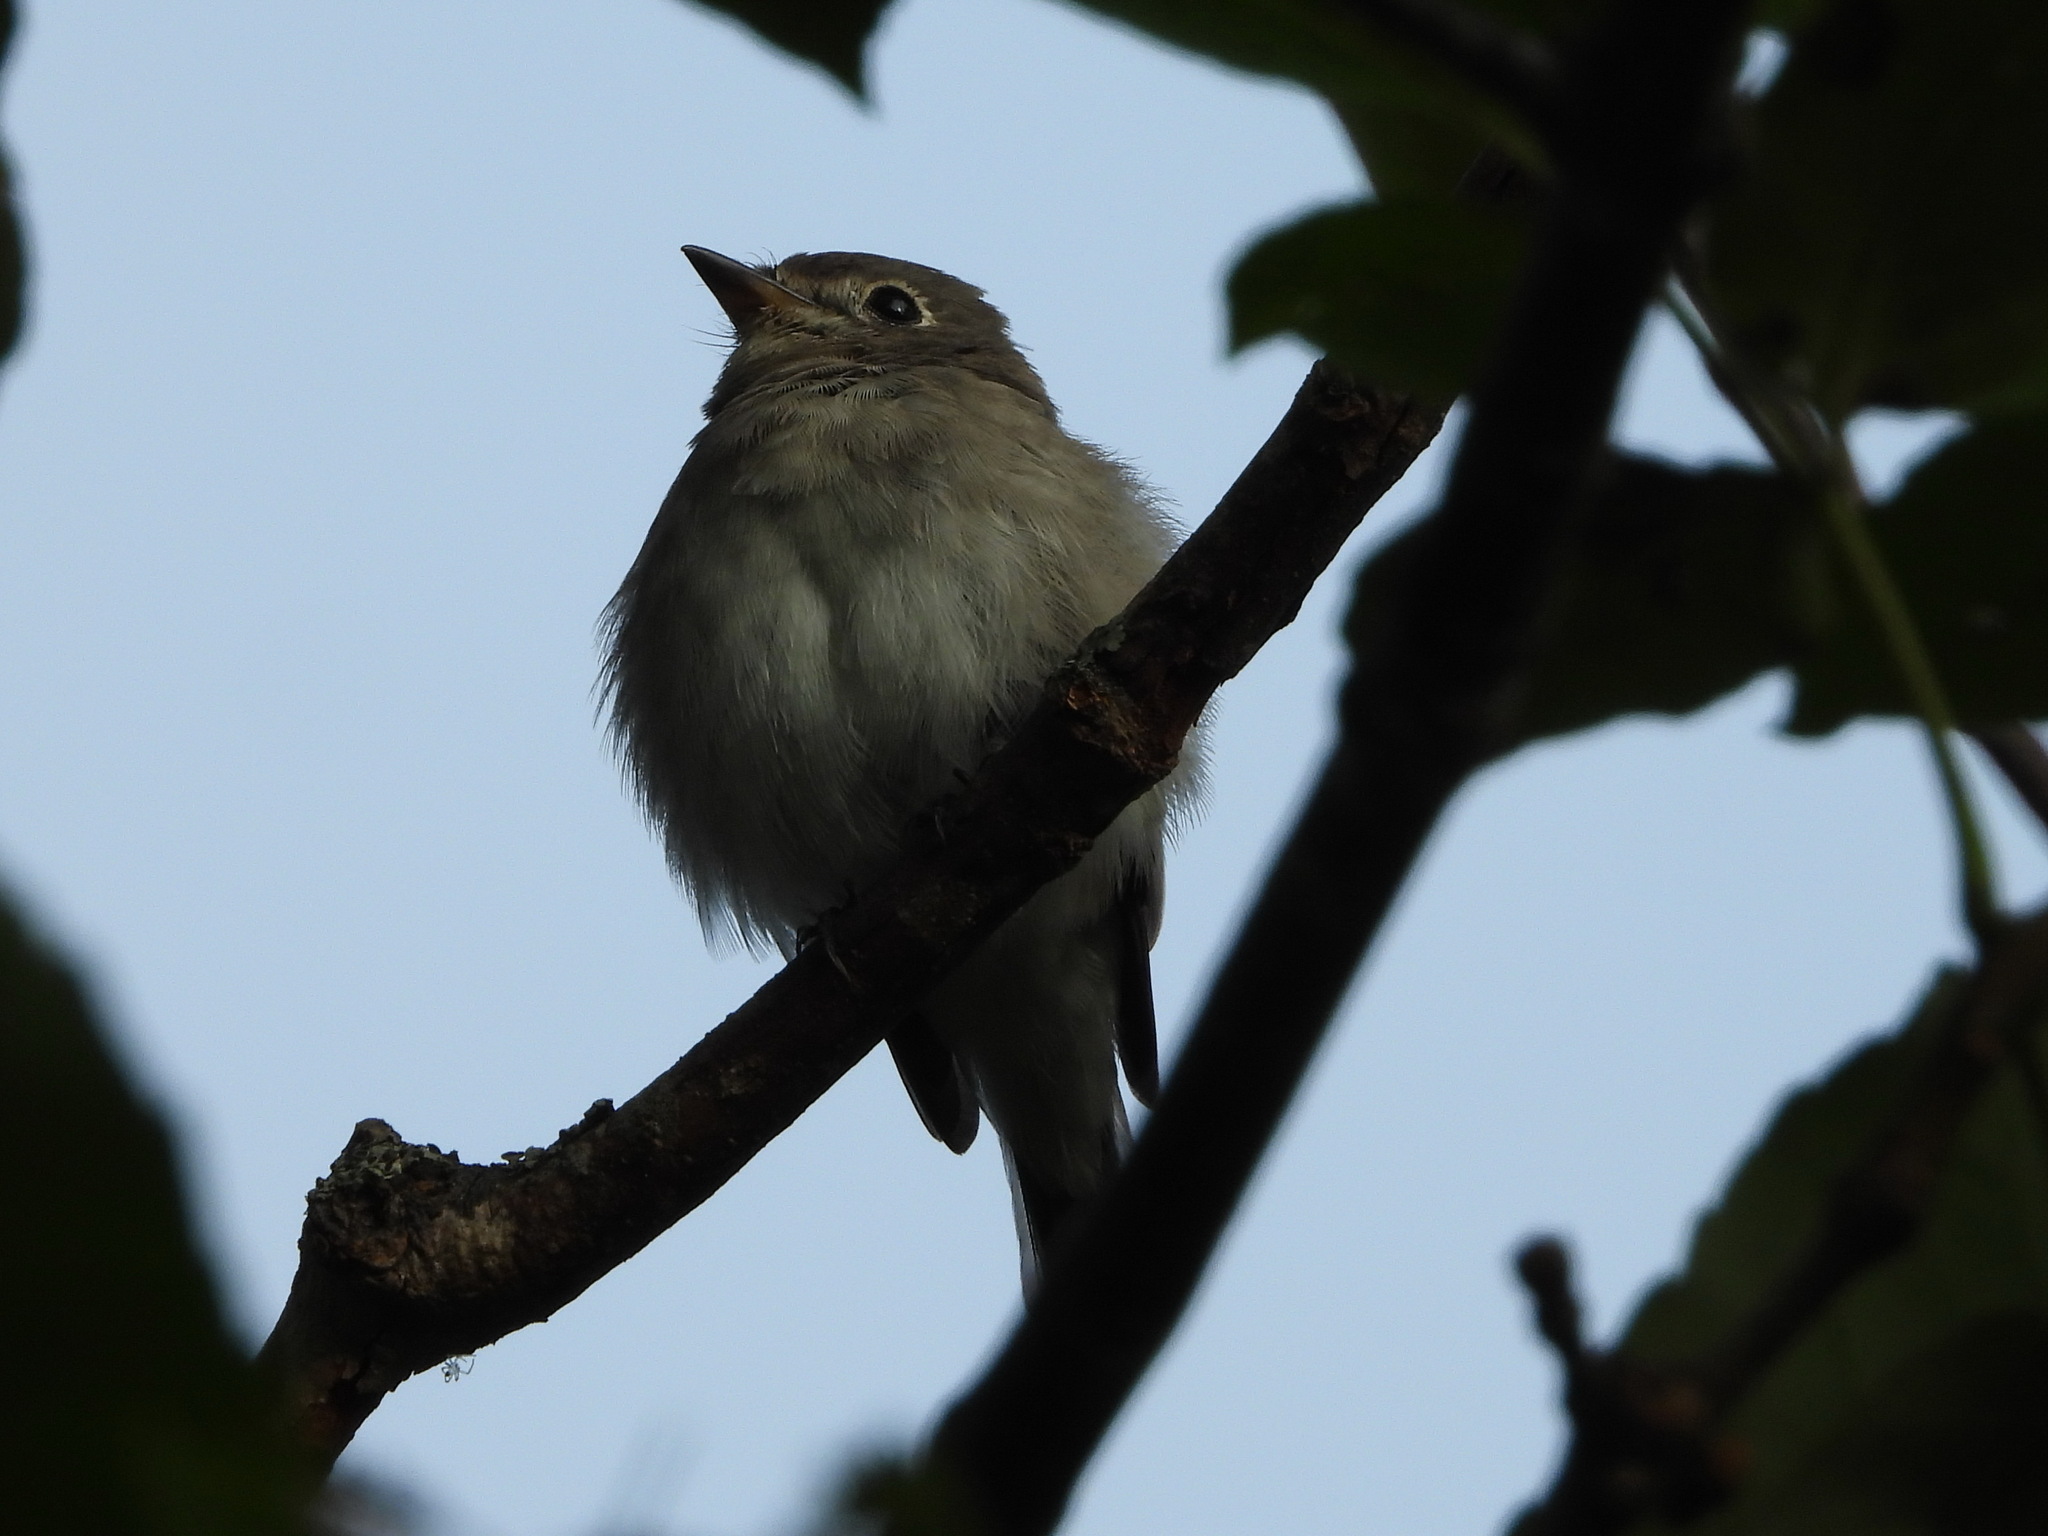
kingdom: Animalia
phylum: Chordata
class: Aves
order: Passeriformes
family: Muscicapidae
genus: Muscicapa
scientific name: Muscicapa latirostris
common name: Asian brown flycatcher
